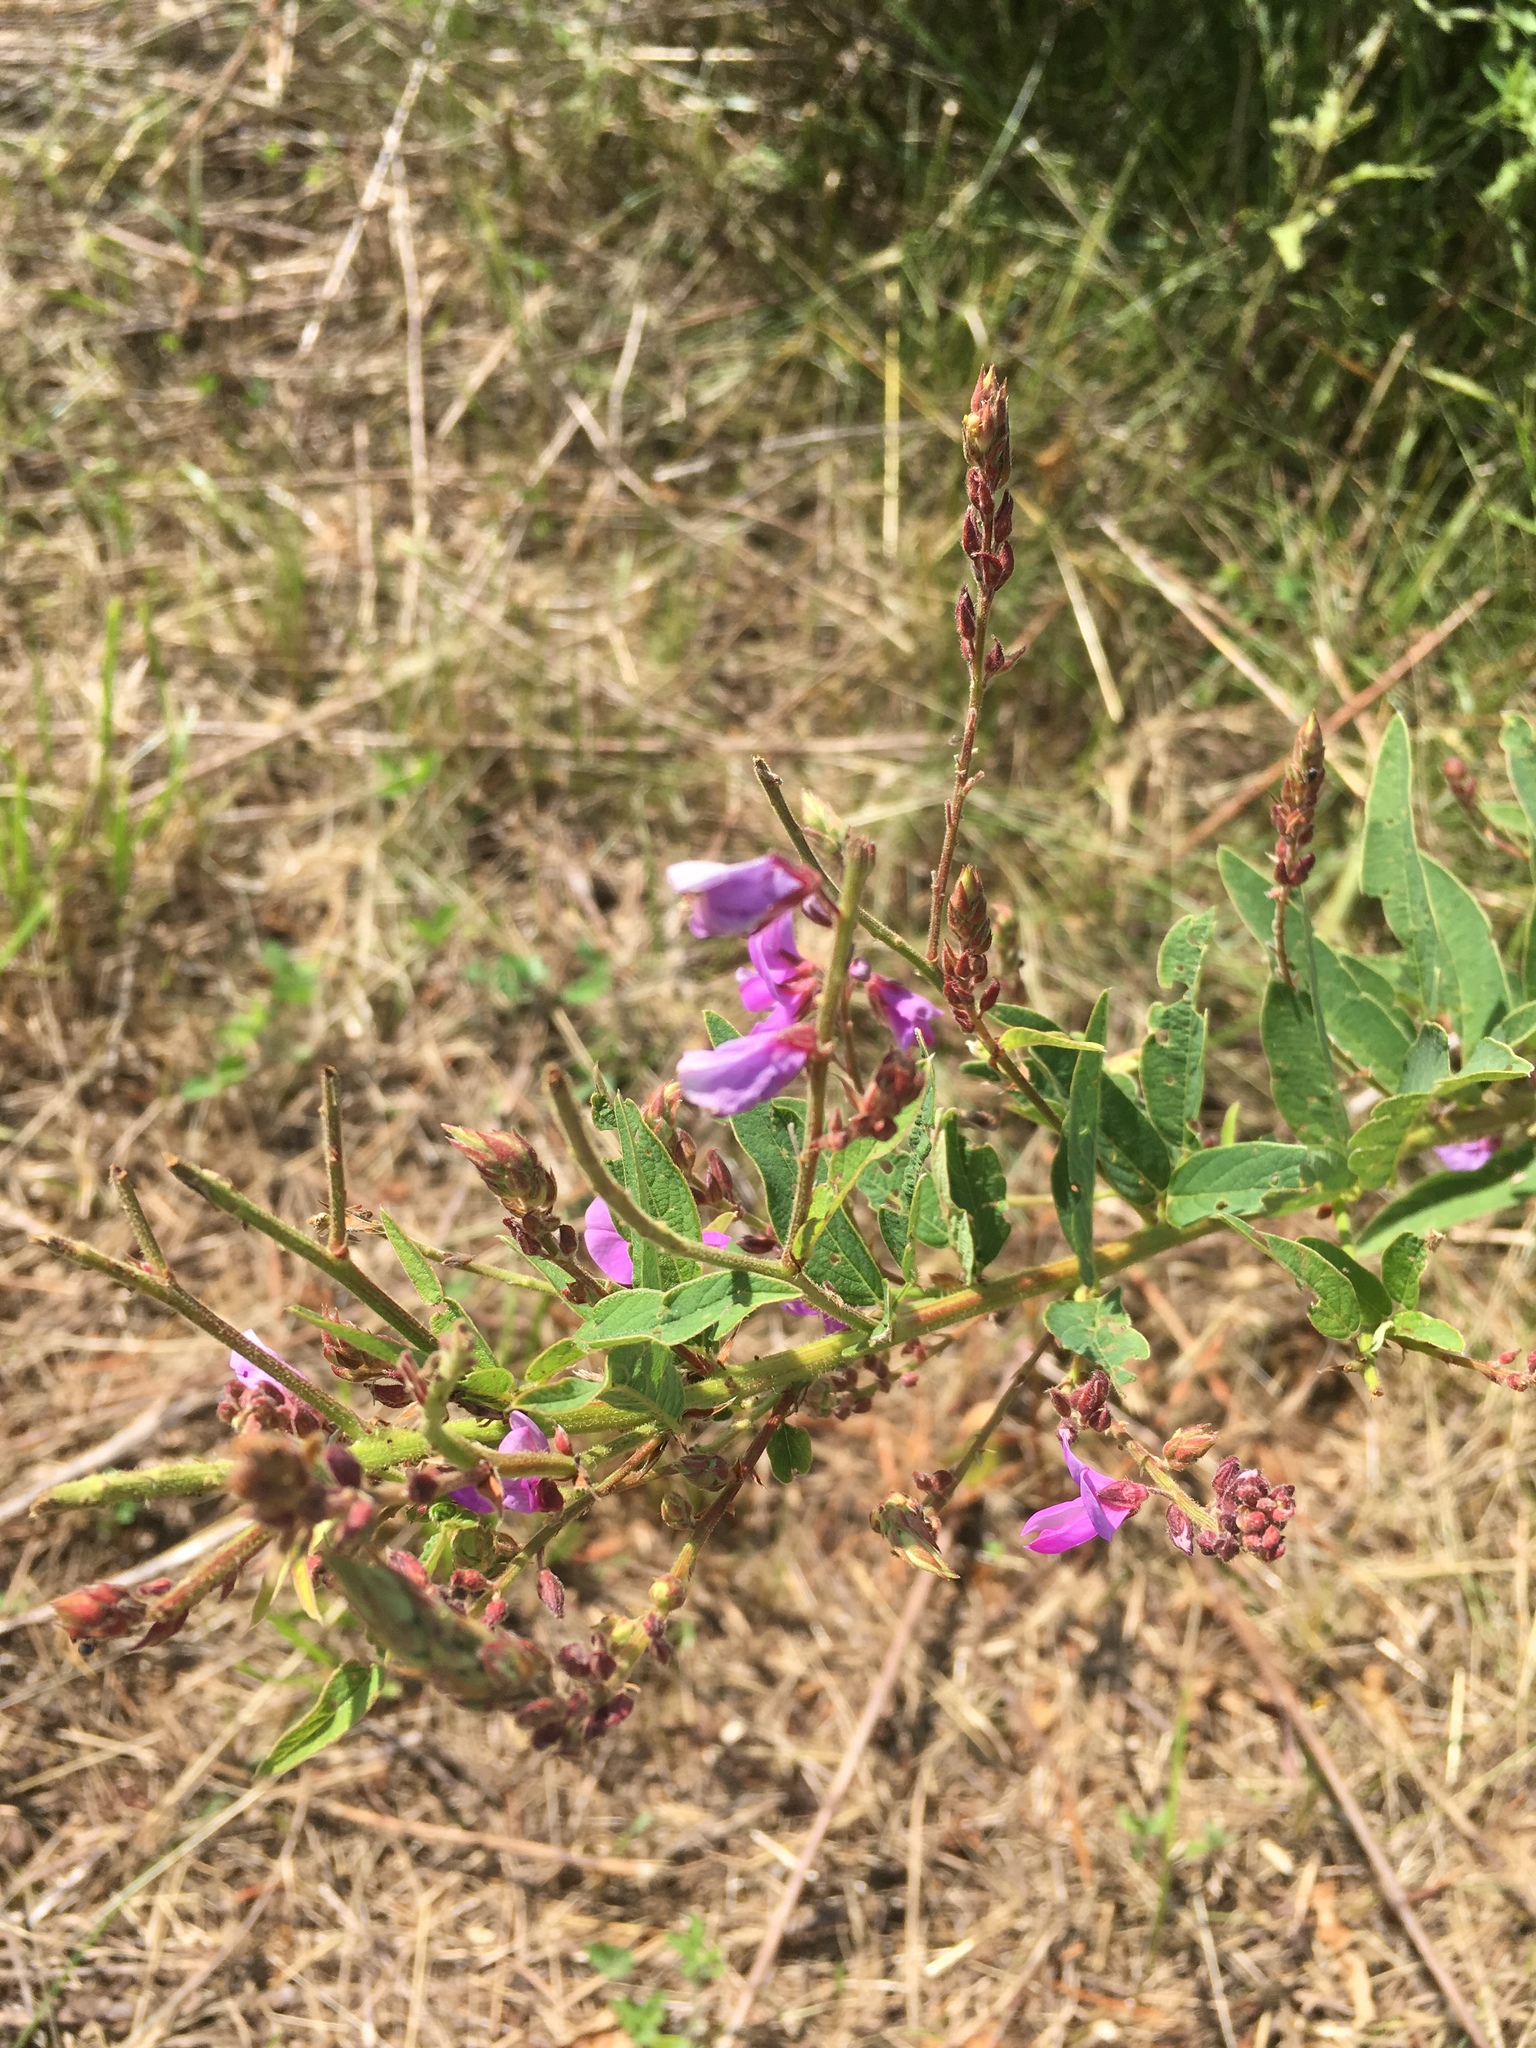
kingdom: Plantae
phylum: Tracheophyta
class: Magnoliopsida
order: Fabales
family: Fabaceae
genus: Desmodium
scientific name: Desmodium canadense
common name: Canada tick-trefoil
